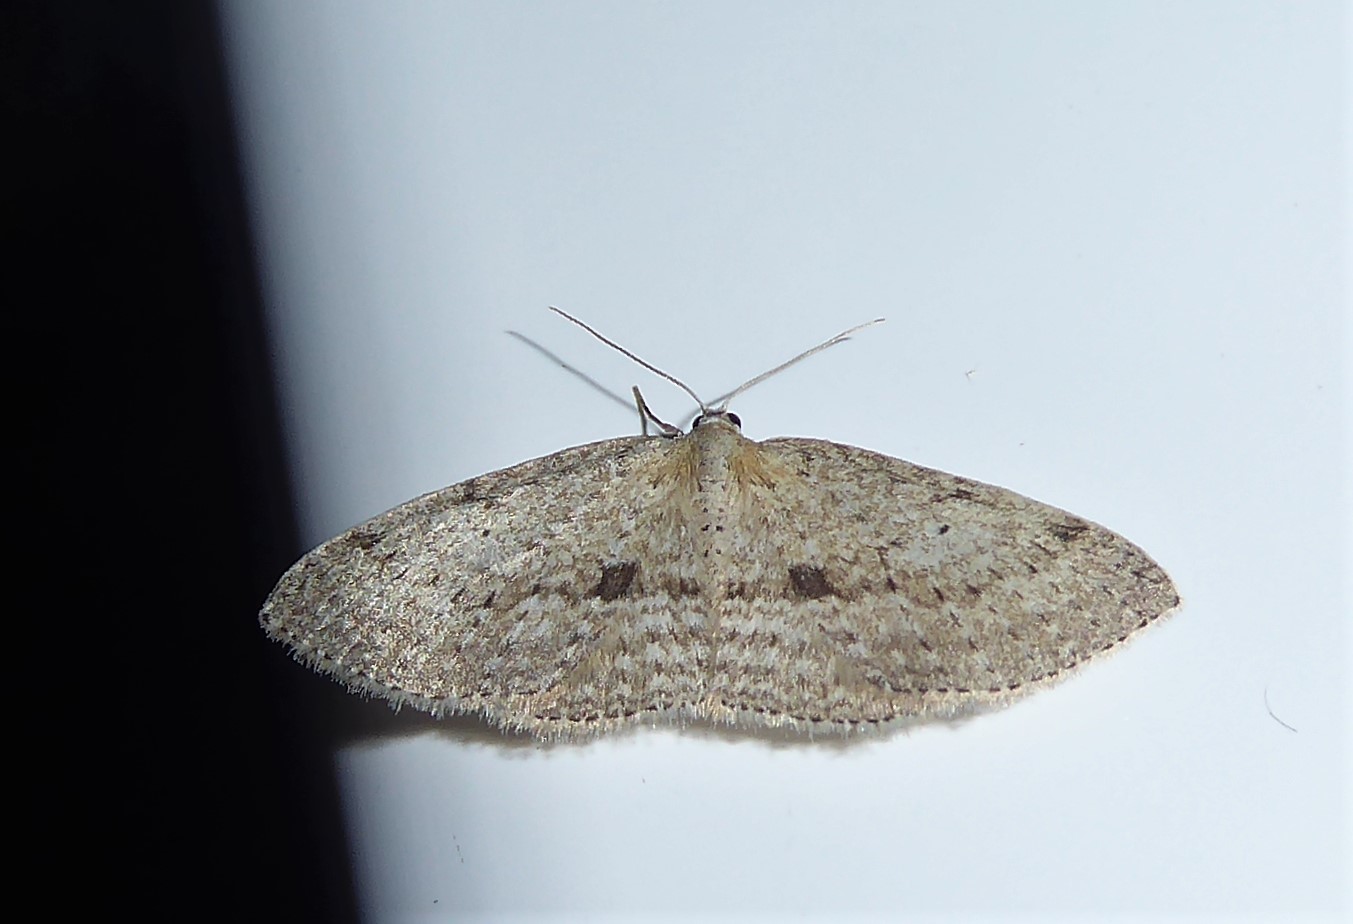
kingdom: Animalia
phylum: Arthropoda
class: Insecta
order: Lepidoptera
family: Geometridae
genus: Poecilasthena
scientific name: Poecilasthena schistaria
